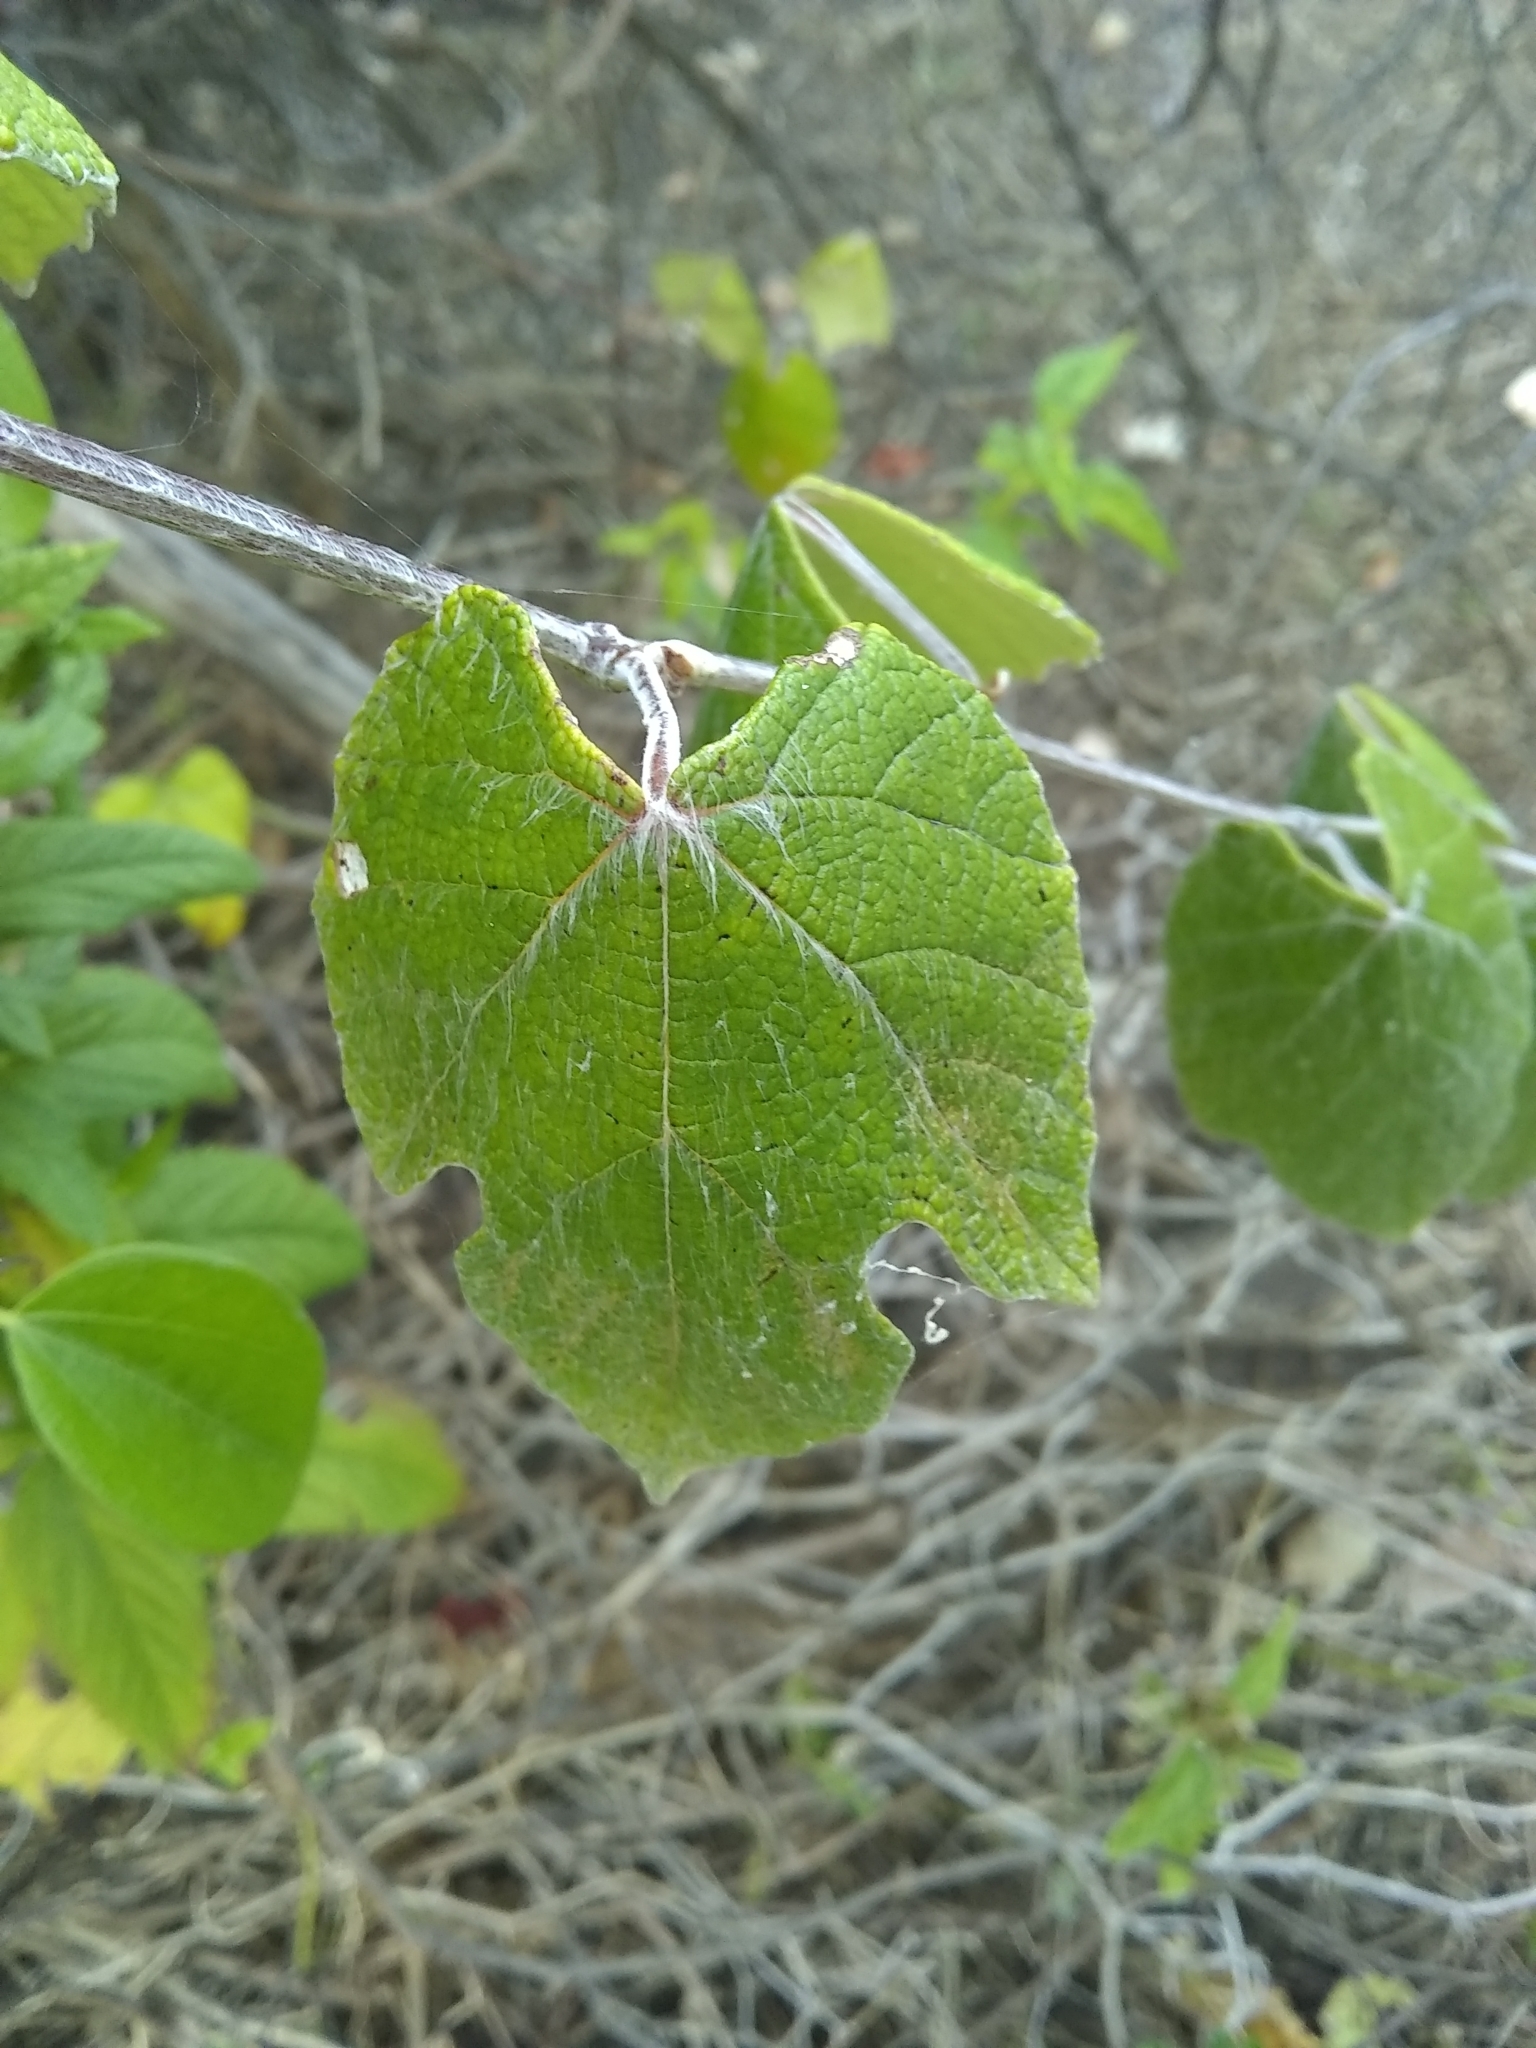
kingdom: Plantae
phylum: Tracheophyta
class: Magnoliopsida
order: Vitales
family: Vitaceae
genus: Vitis
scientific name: Vitis mustangensis
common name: Mustang grape
